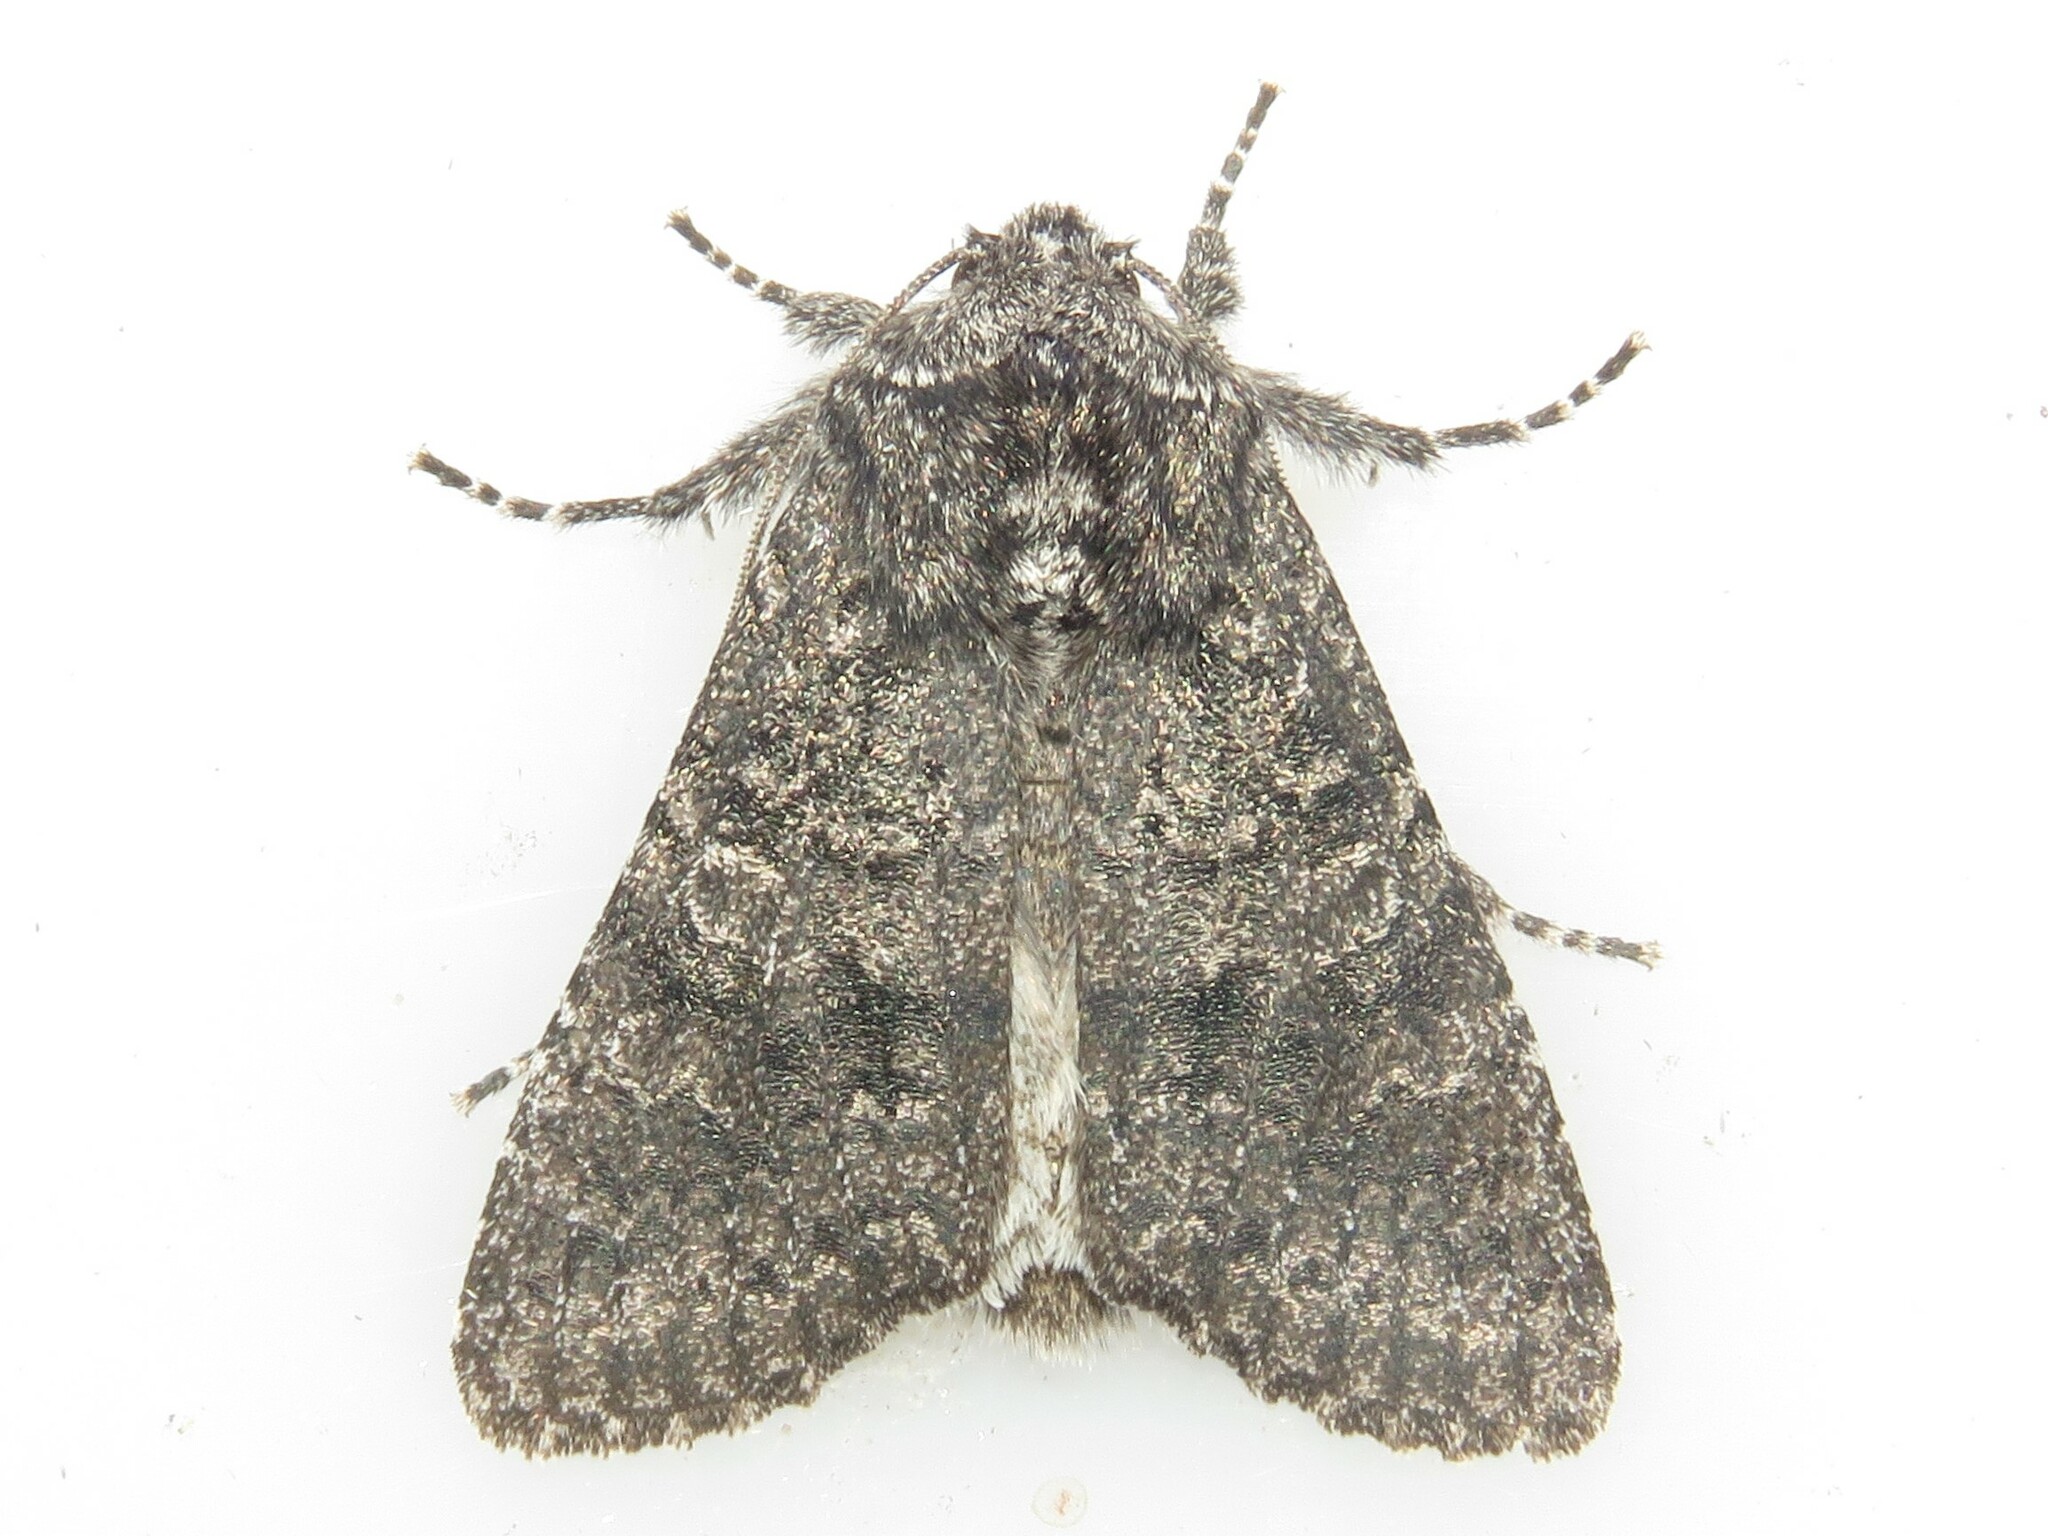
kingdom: Animalia
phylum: Arthropoda
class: Insecta
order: Lepidoptera
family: Noctuidae
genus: Egira
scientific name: Egira dolosa
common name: Lined black aspen cat.
